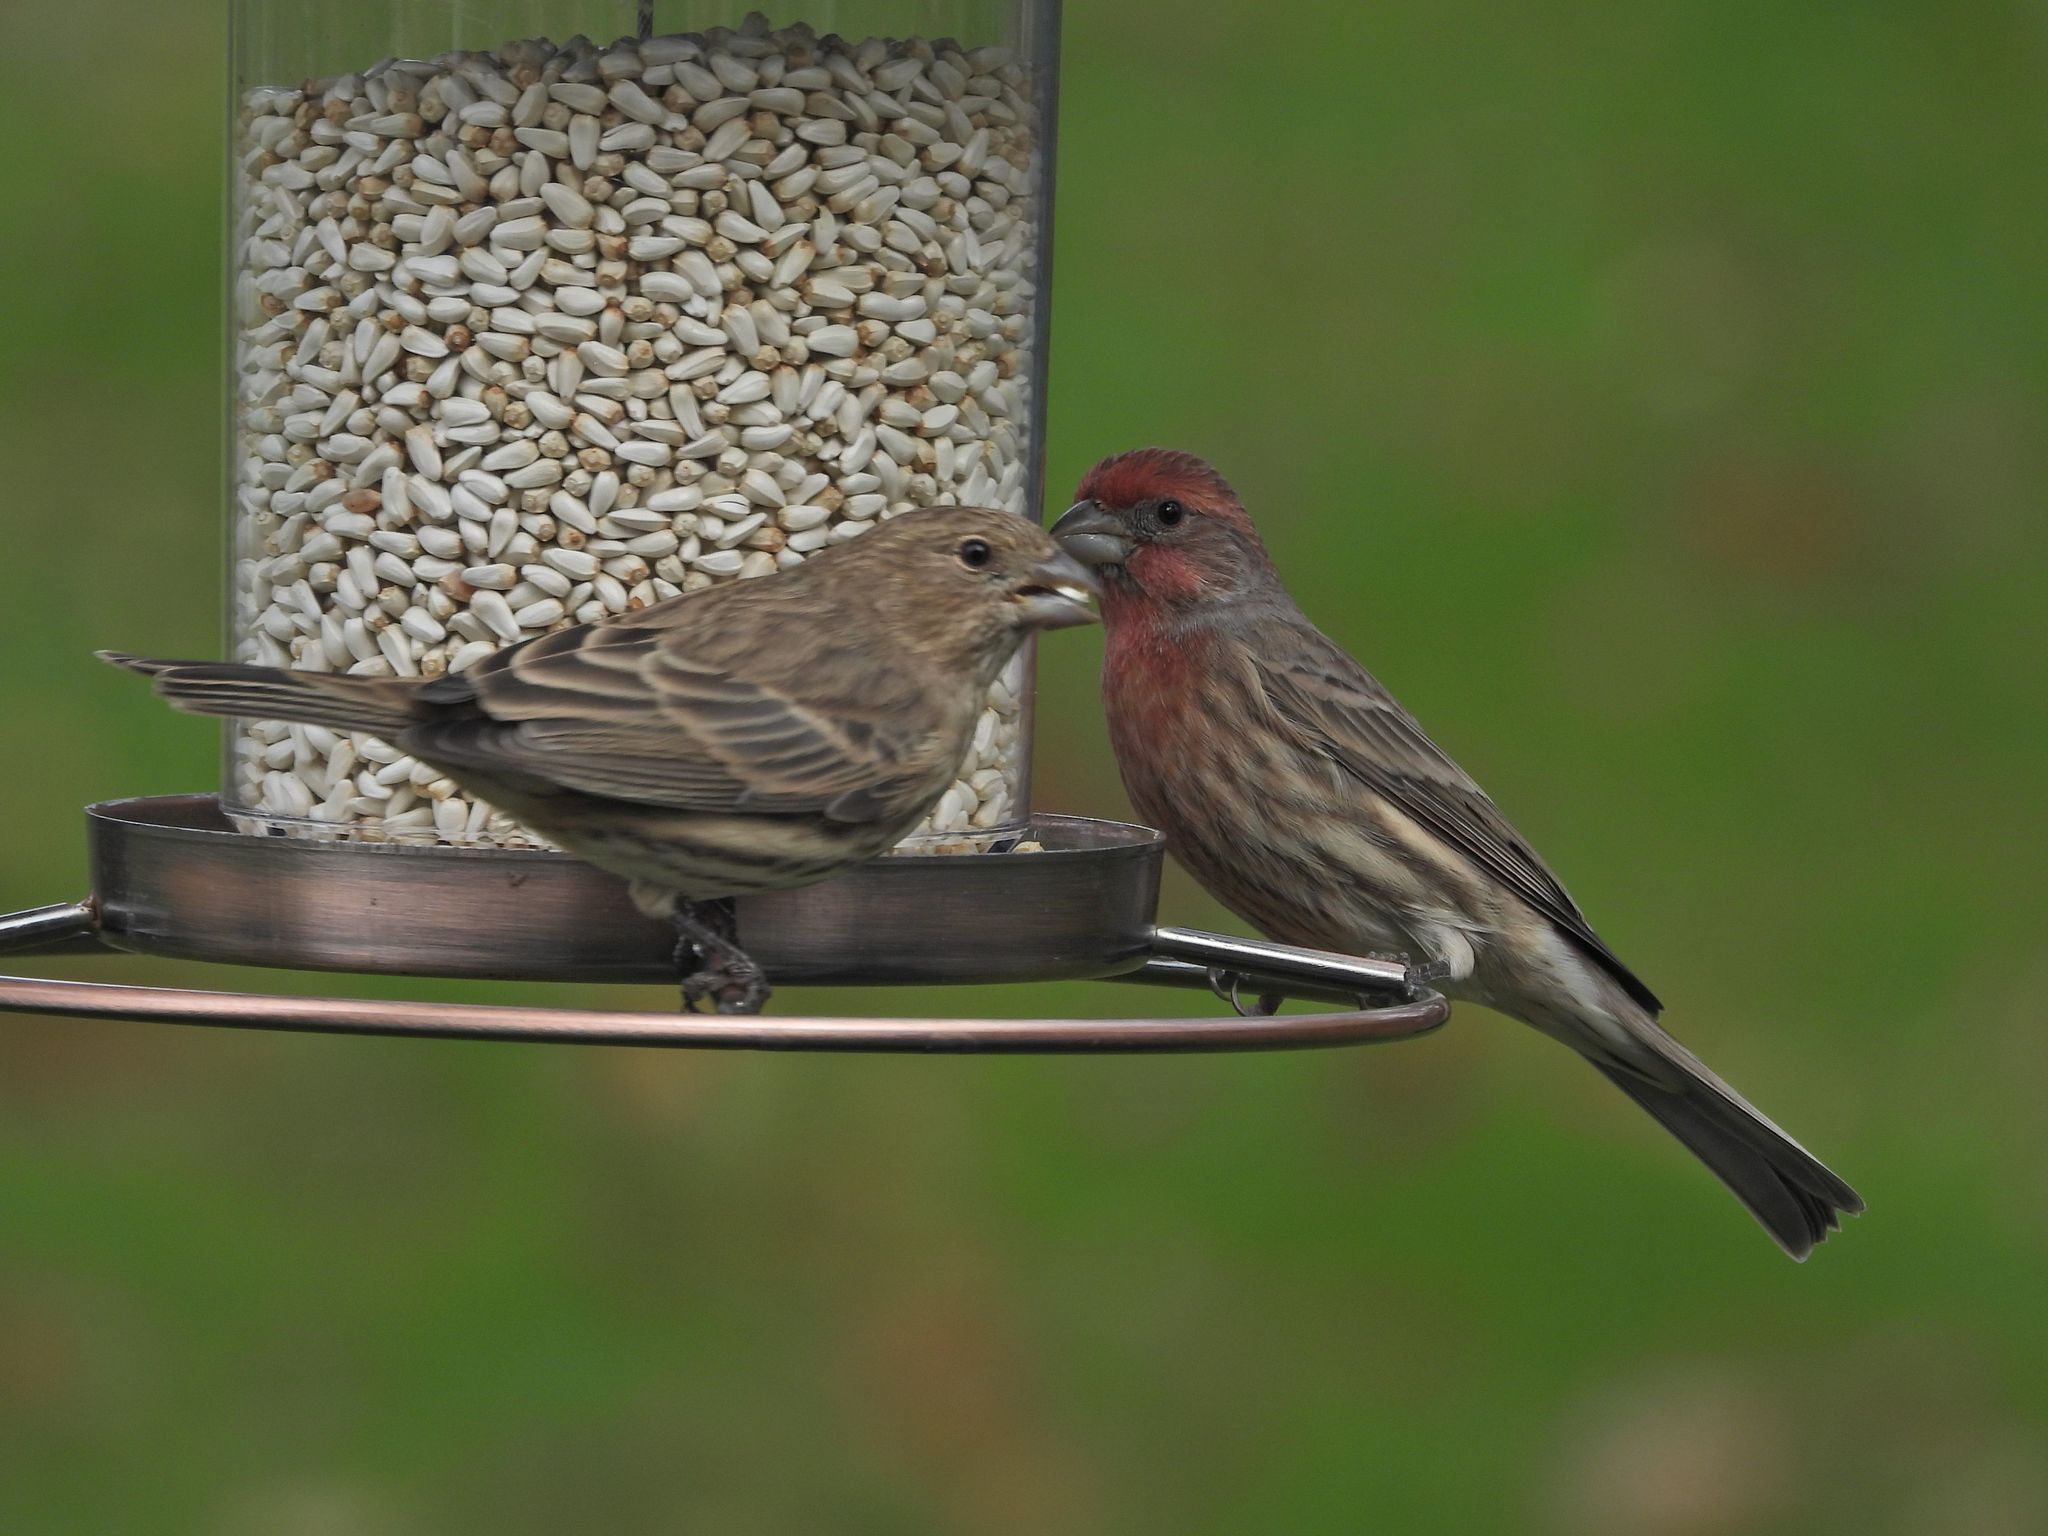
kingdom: Animalia
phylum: Chordata
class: Aves
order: Passeriformes
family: Fringillidae
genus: Haemorhous
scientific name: Haemorhous mexicanus
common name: House finch
